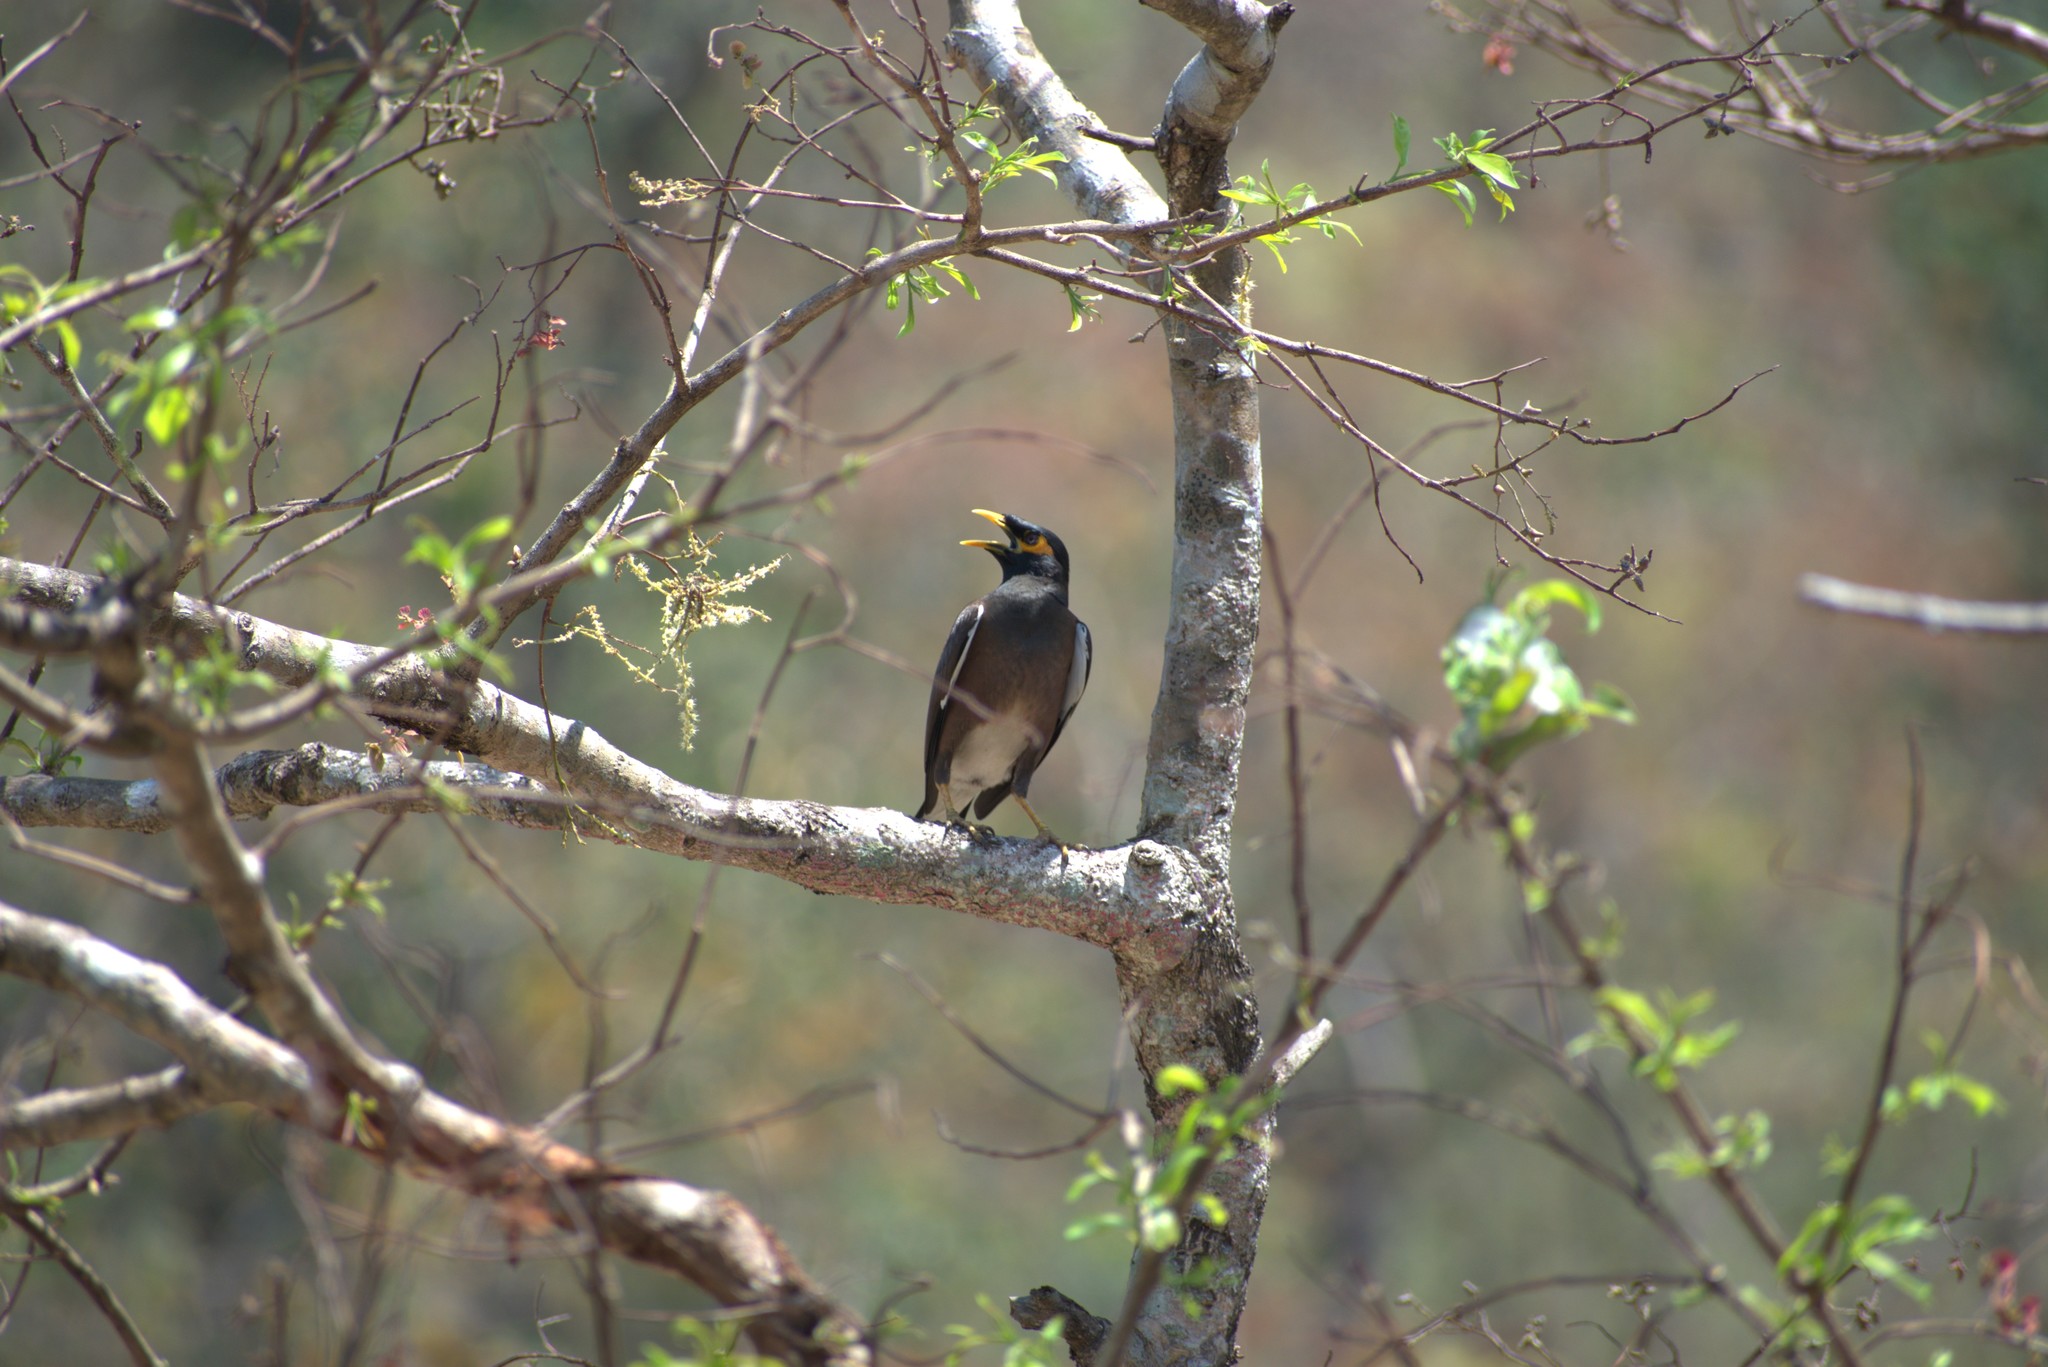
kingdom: Animalia
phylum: Chordata
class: Aves
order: Passeriformes
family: Sturnidae
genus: Acridotheres
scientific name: Acridotheres tristis
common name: Common myna
